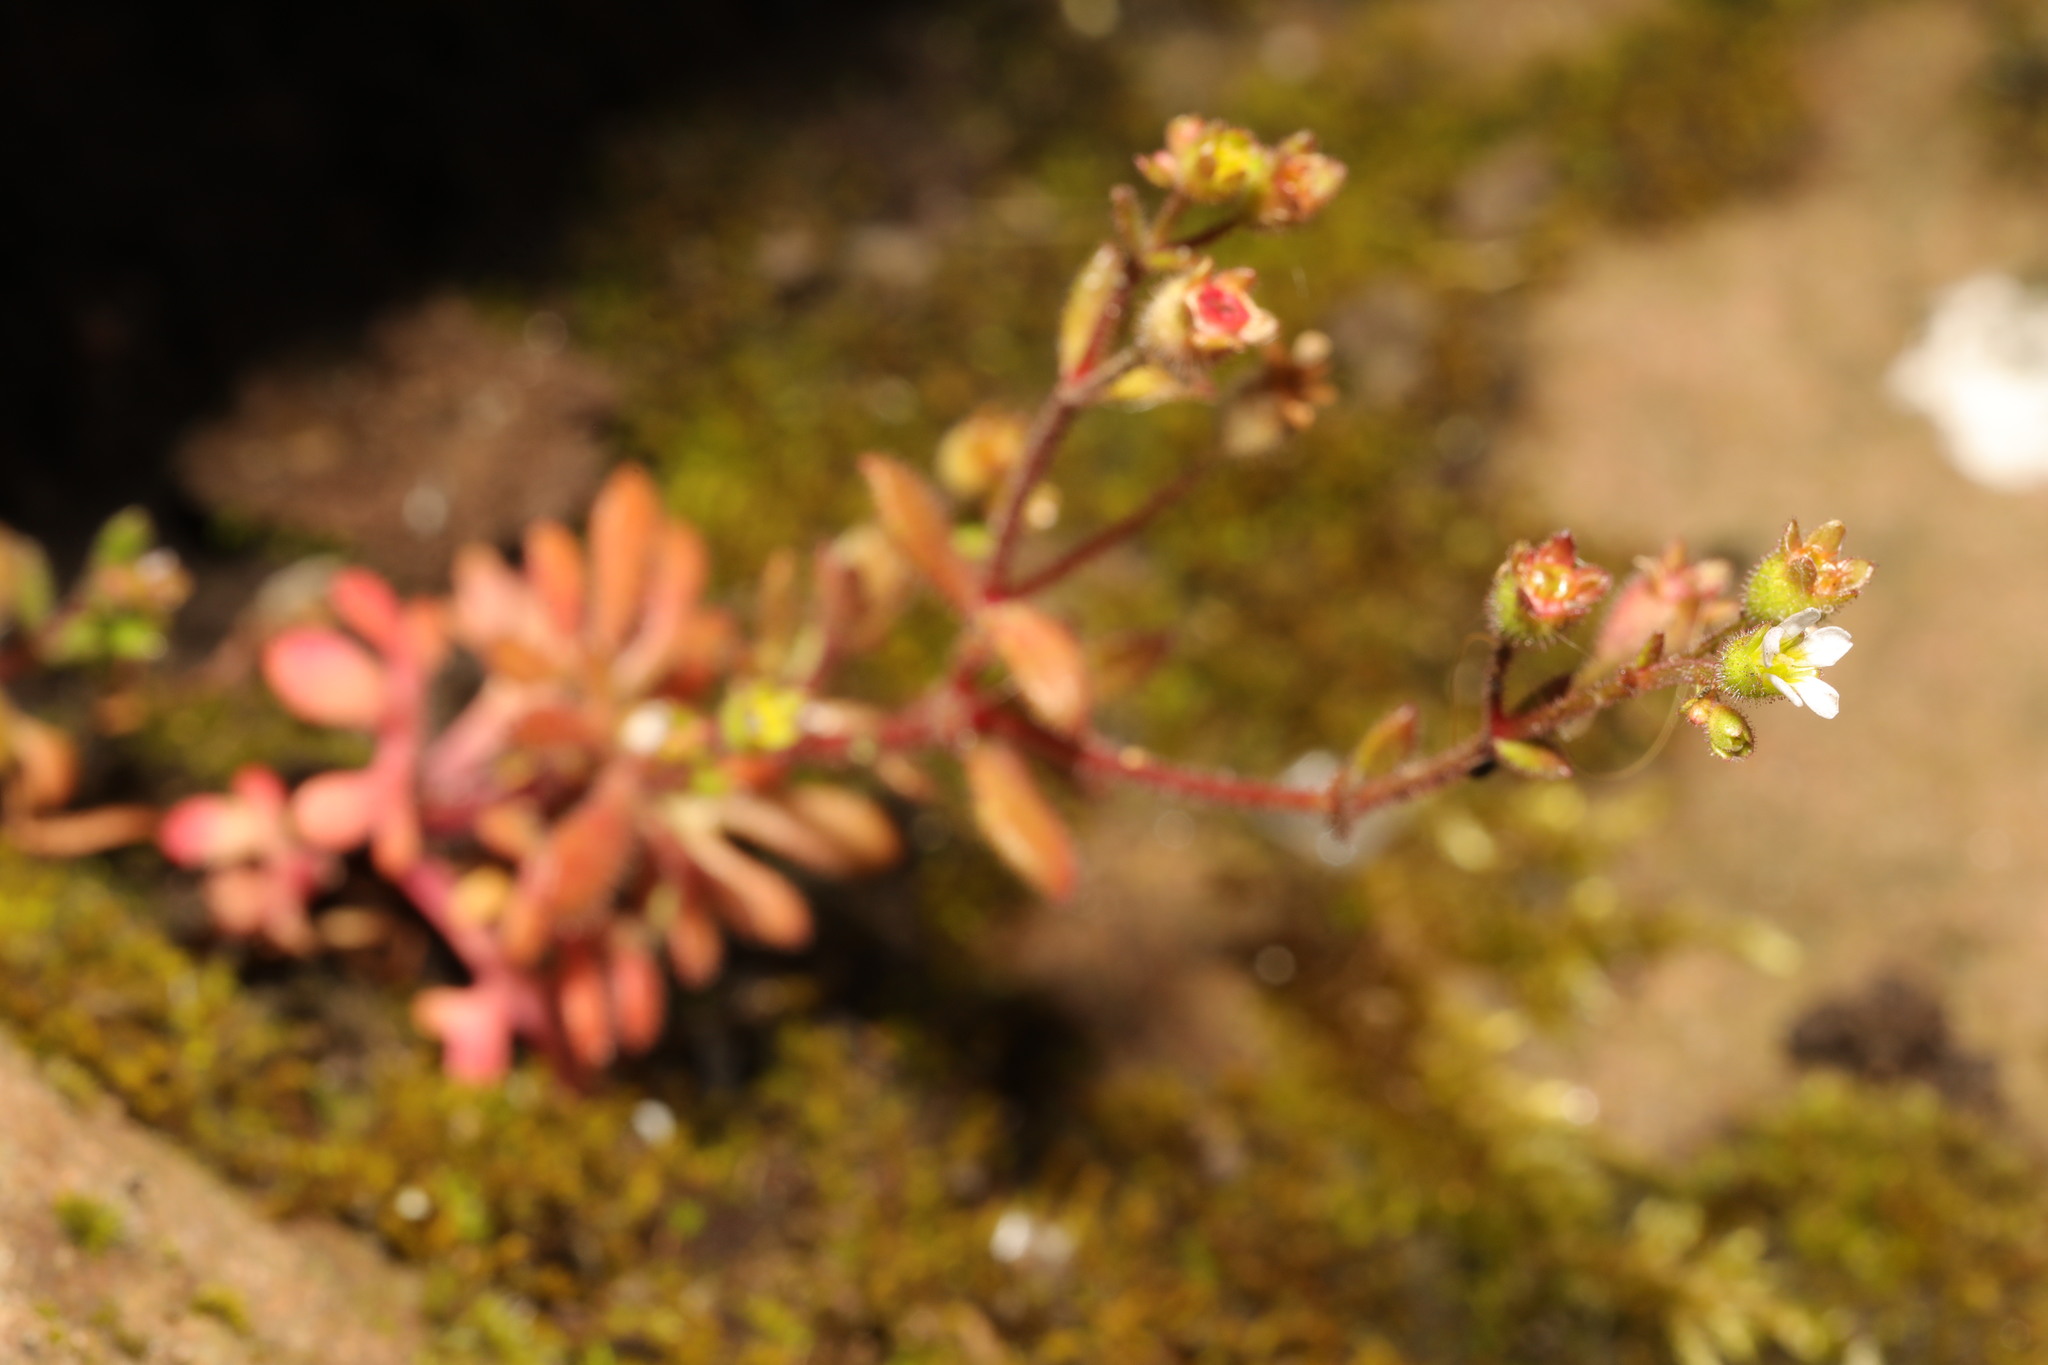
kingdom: Plantae
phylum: Tracheophyta
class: Magnoliopsida
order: Saxifragales
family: Saxifragaceae
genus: Saxifraga
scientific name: Saxifraga tridactylites
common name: Rue-leaved saxifrage
